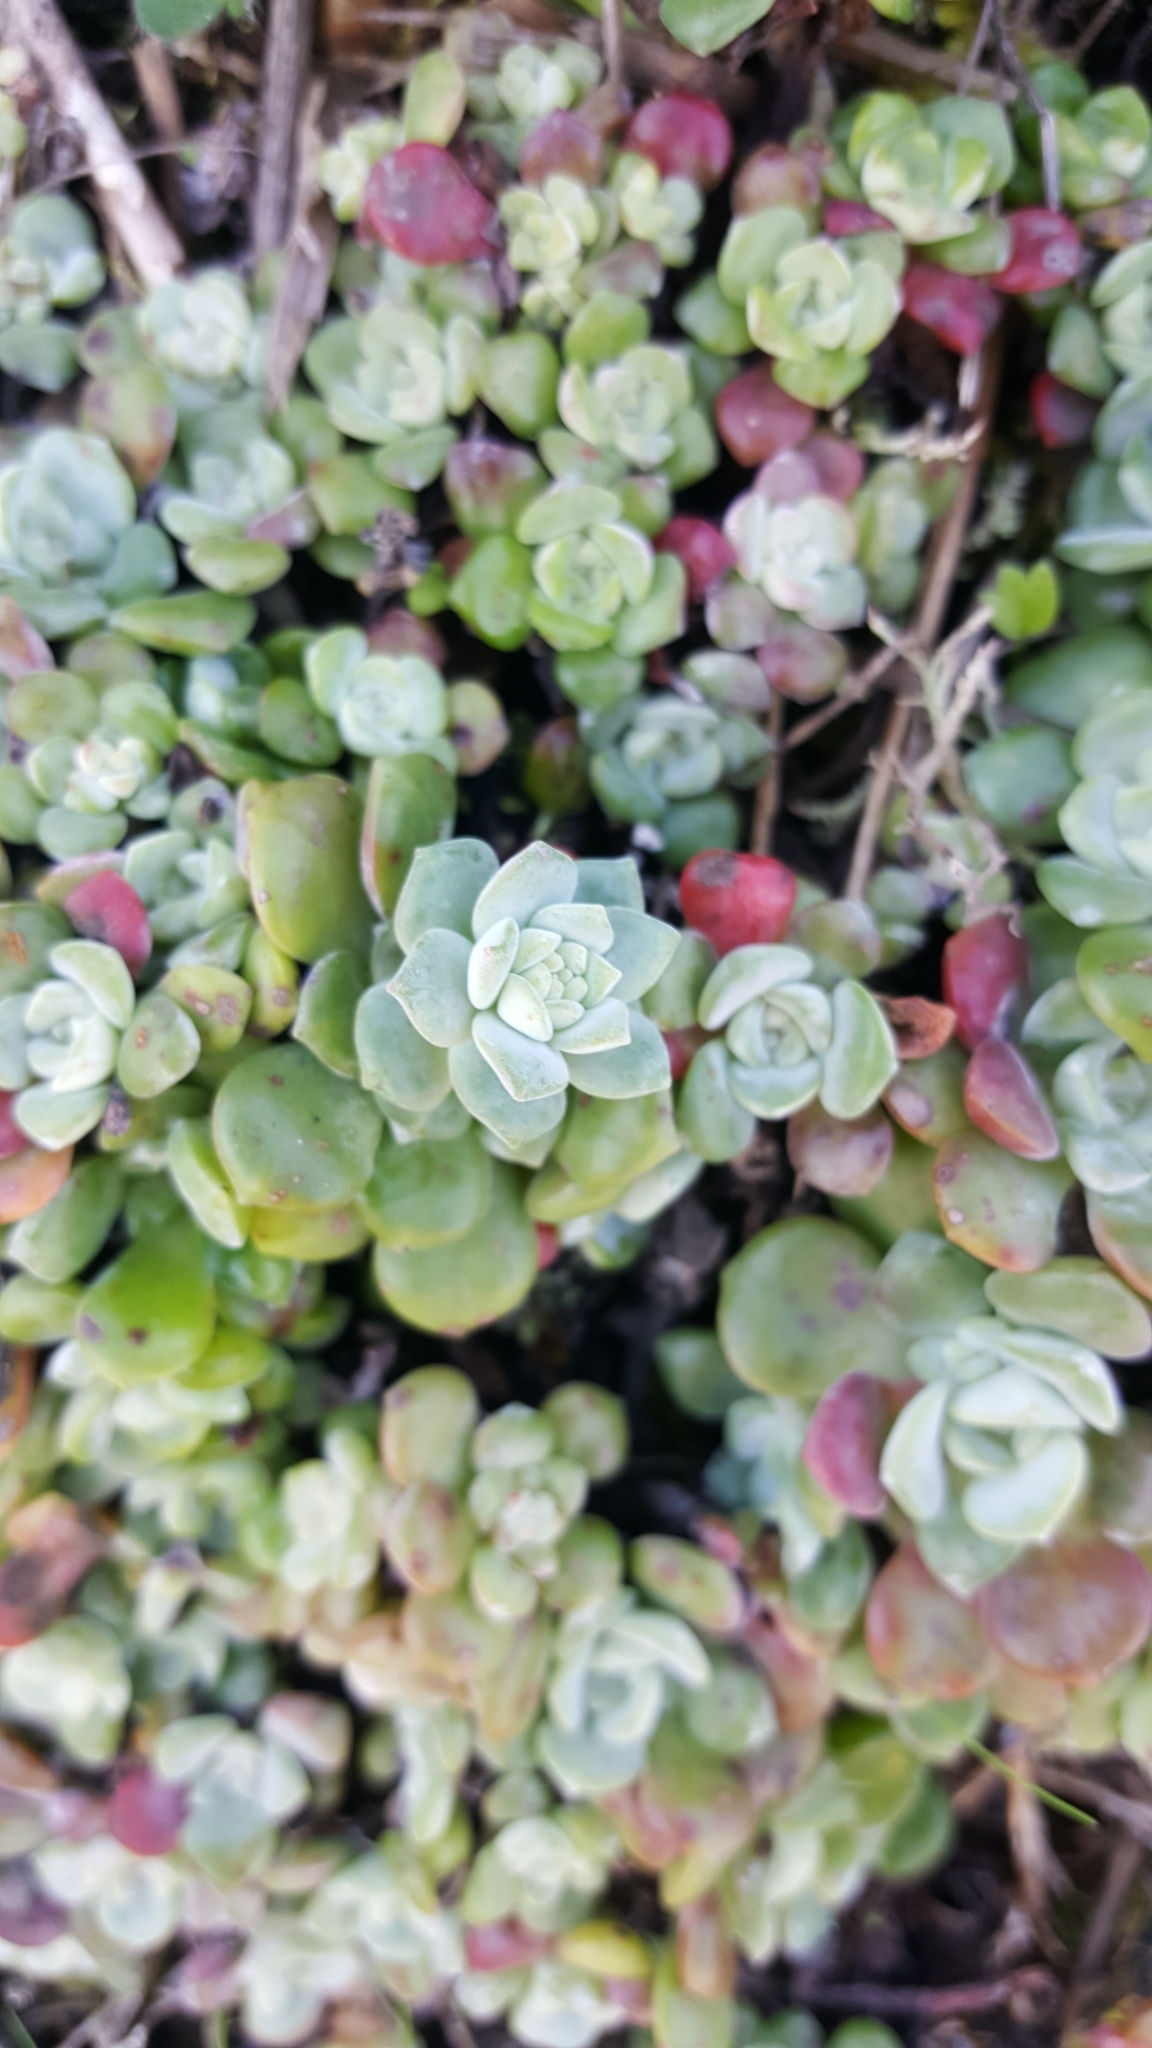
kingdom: Plantae
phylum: Tracheophyta
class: Magnoliopsida
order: Saxifragales
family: Crassulaceae
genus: Sedum
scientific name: Sedum spathulifolium
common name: Colorado stonecrop
